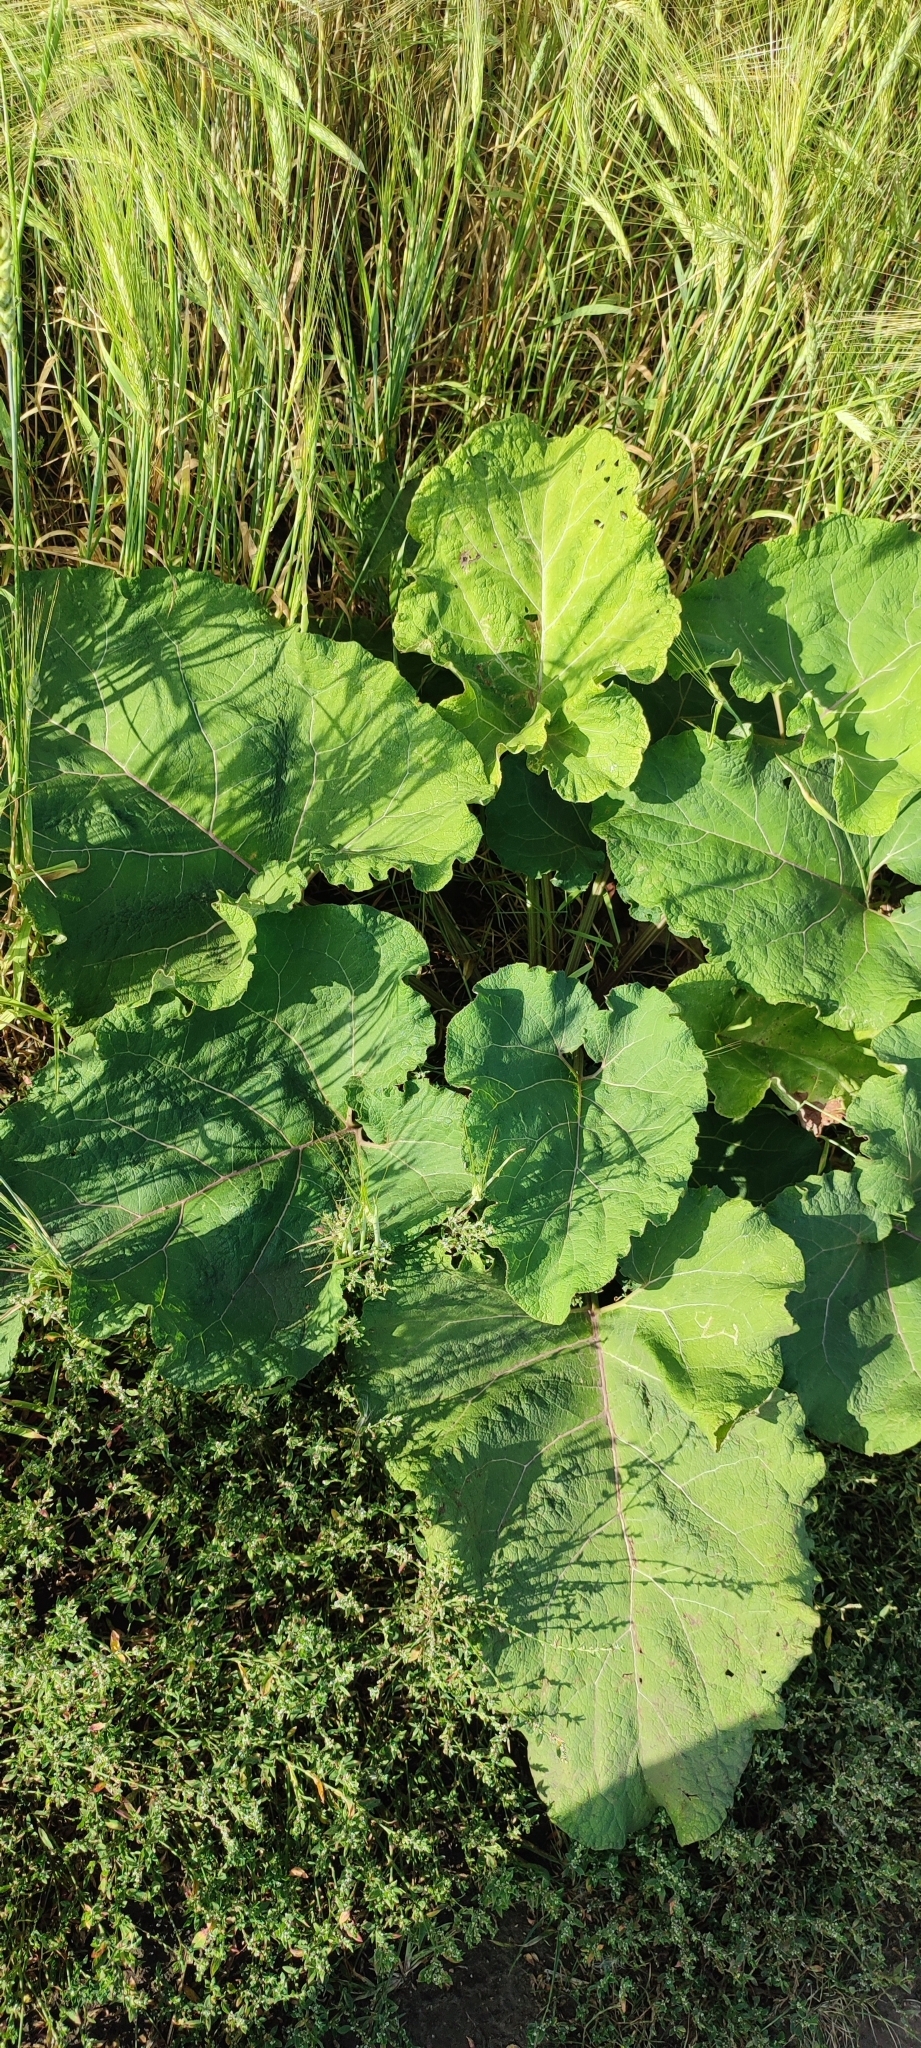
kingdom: Plantae
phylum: Tracheophyta
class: Magnoliopsida
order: Asterales
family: Asteraceae
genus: Arctium
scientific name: Arctium tomentosum
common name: Woolly burdock
